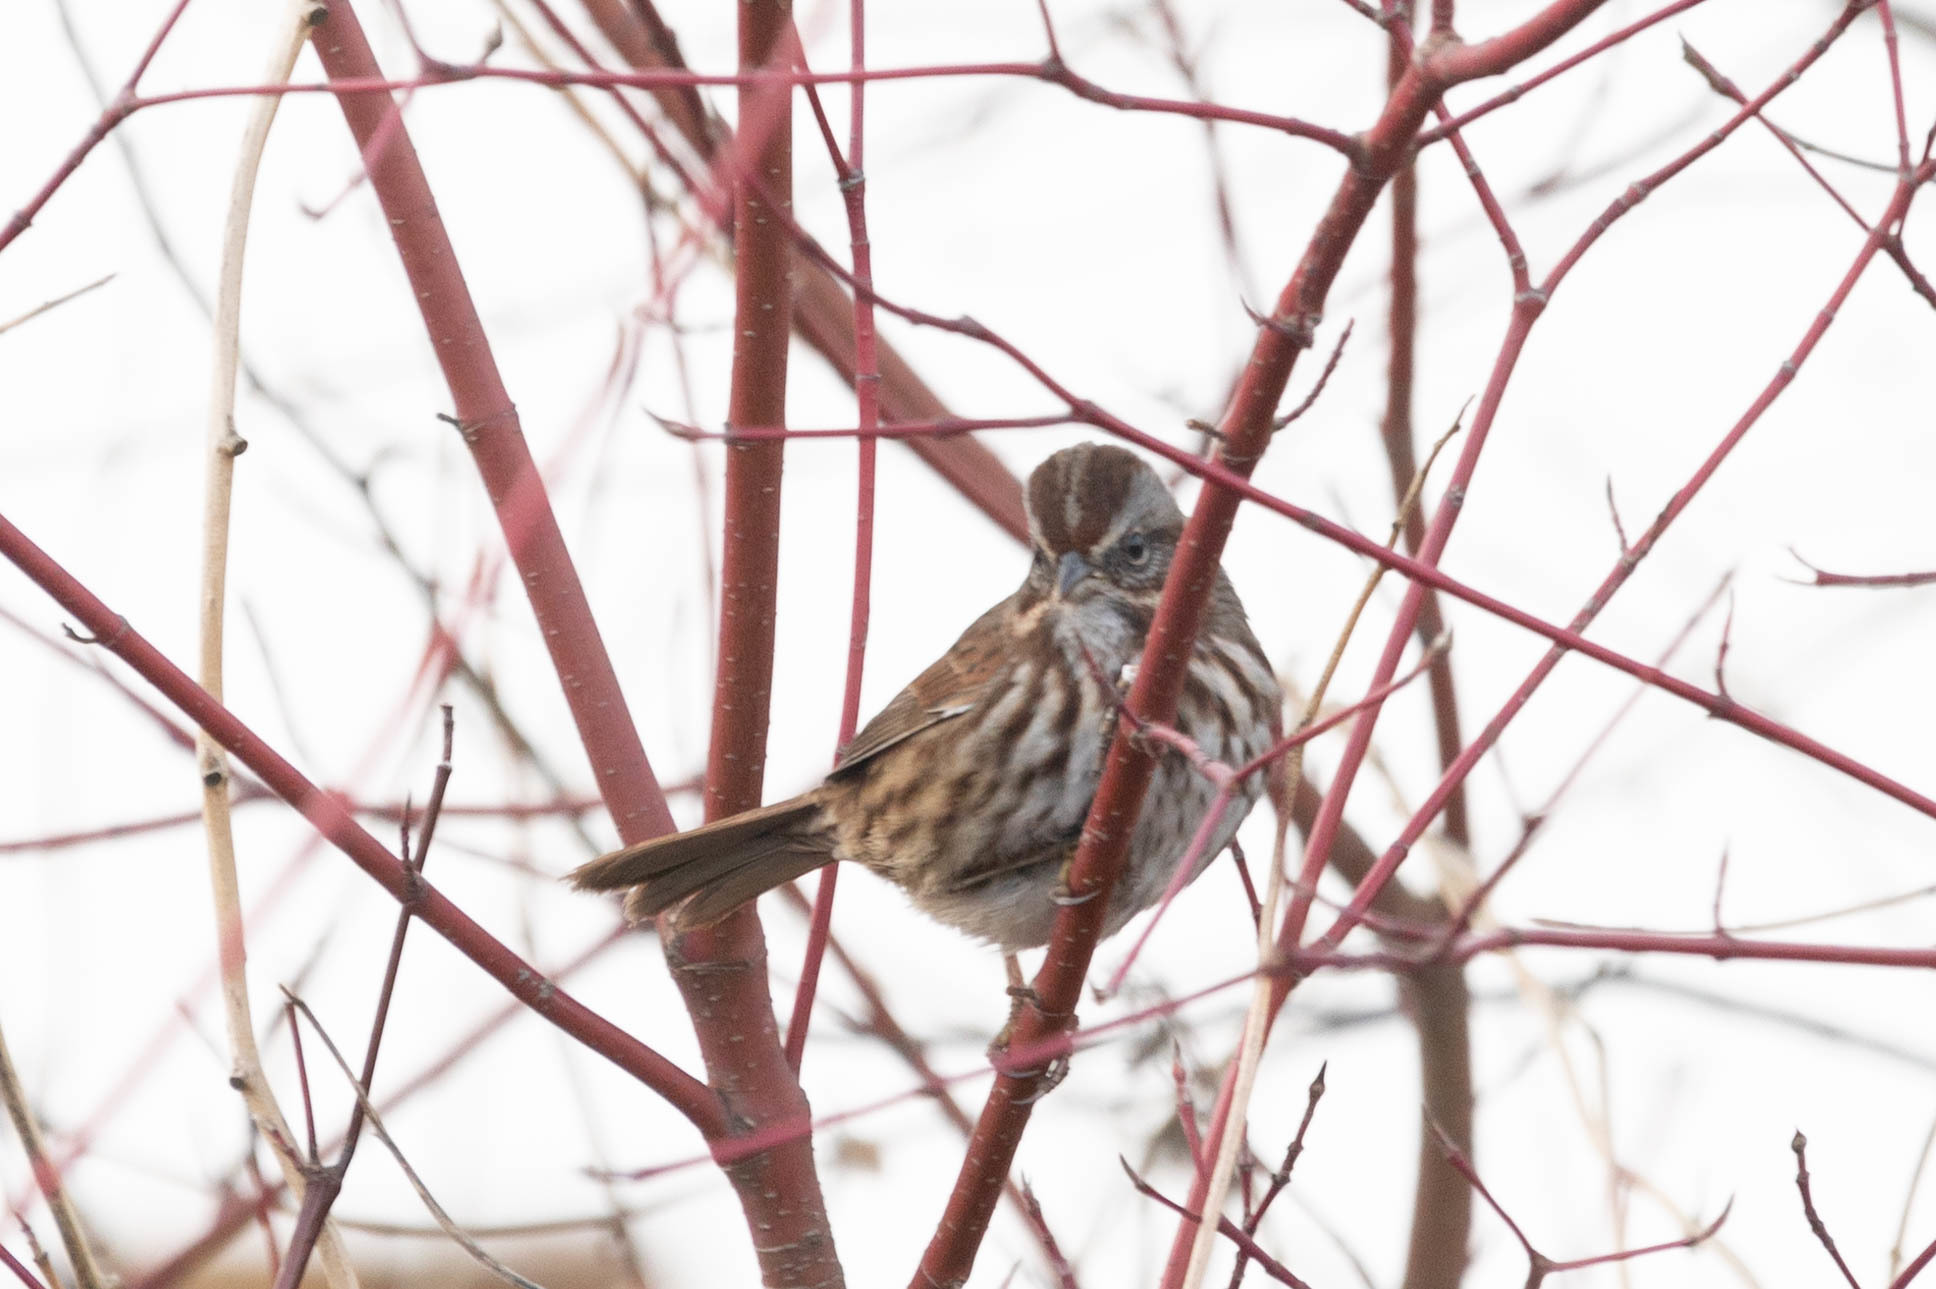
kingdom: Animalia
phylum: Chordata
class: Aves
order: Passeriformes
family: Passerellidae
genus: Melospiza
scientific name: Melospiza melodia
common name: Song sparrow
